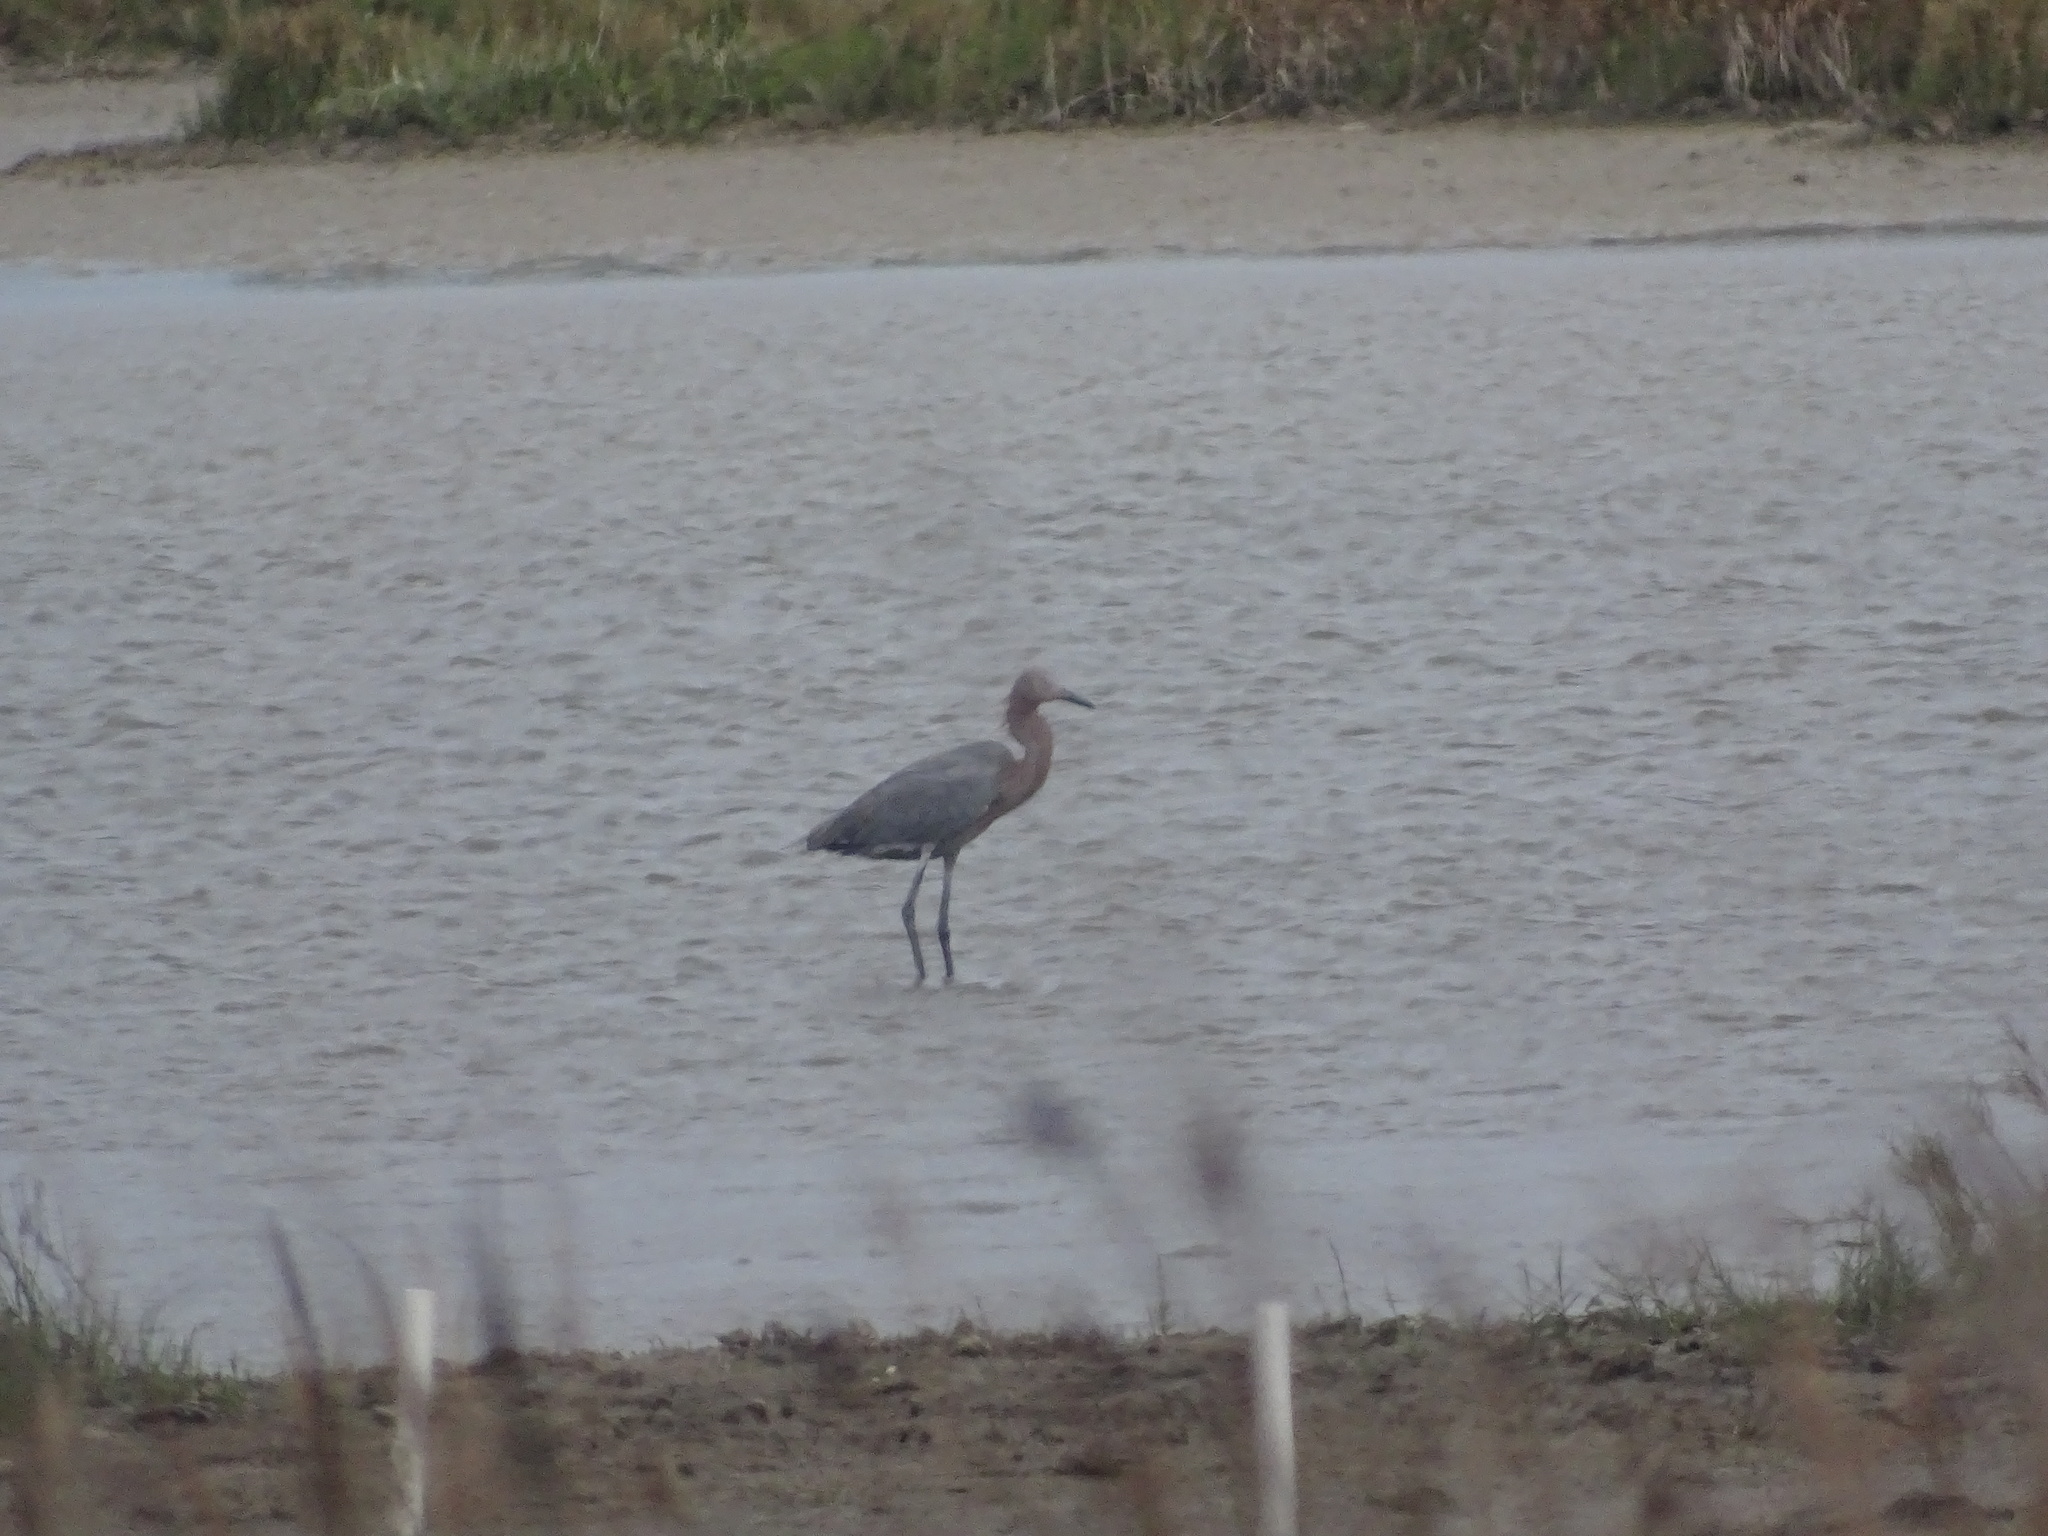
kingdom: Animalia
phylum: Chordata
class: Aves
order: Pelecaniformes
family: Ardeidae
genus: Egretta
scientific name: Egretta rufescens
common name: Reddish egret
